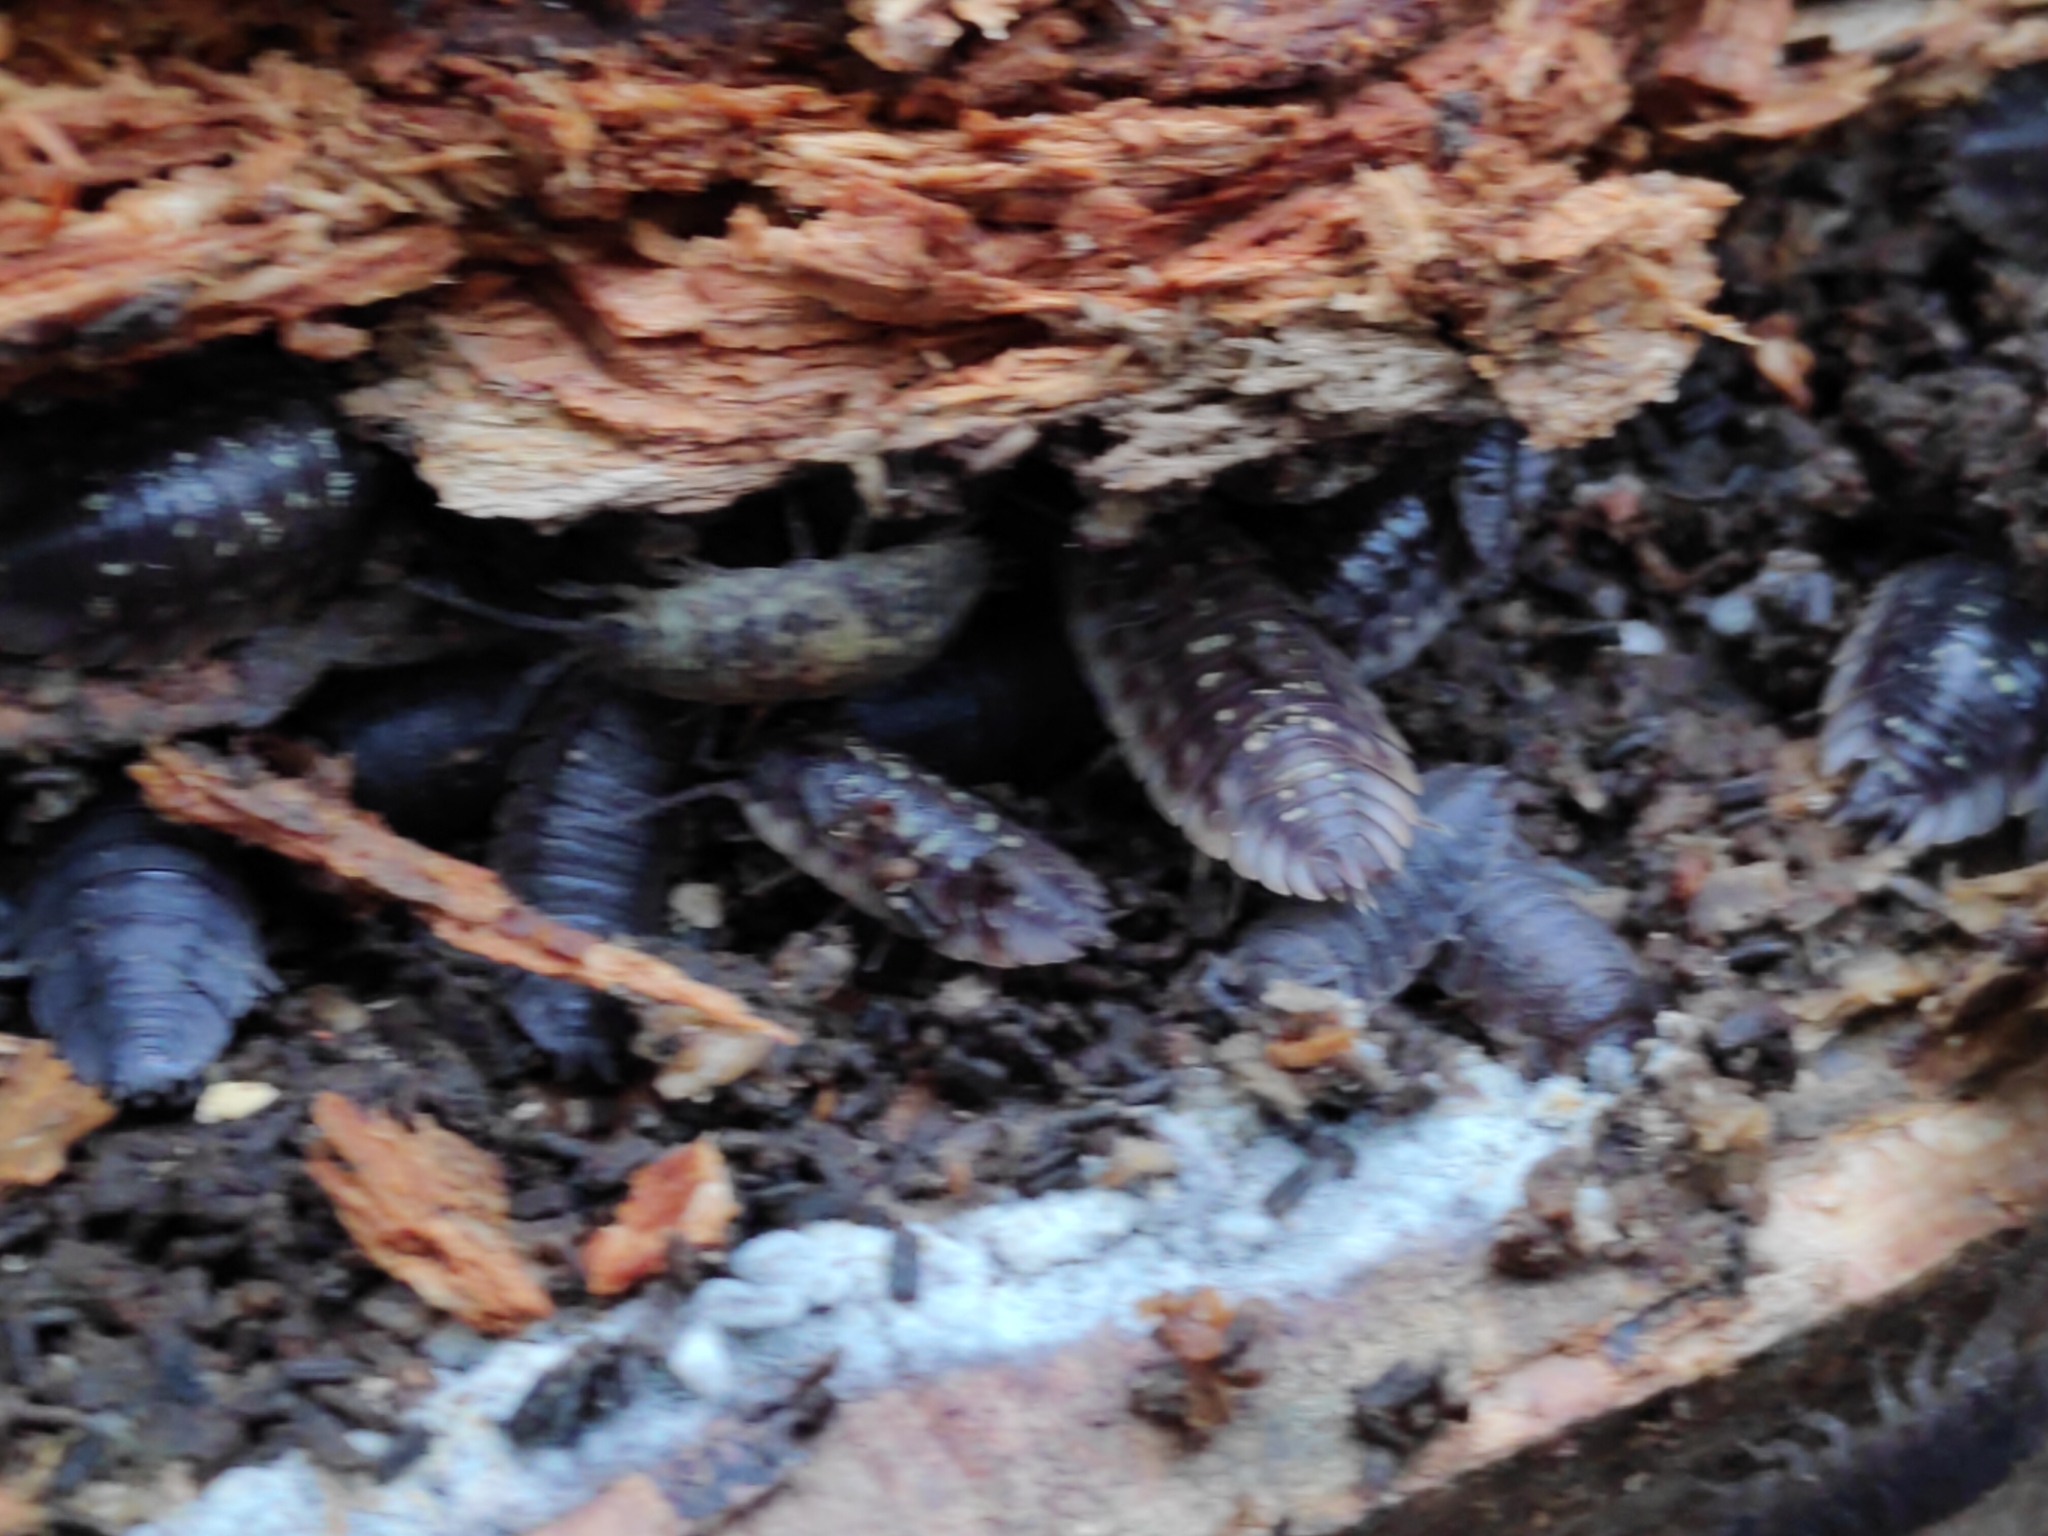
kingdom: Animalia
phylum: Arthropoda
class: Malacostraca
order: Isopoda
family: Oniscidae
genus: Oniscus
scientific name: Oniscus asellus
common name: Common shiny woodlouse
